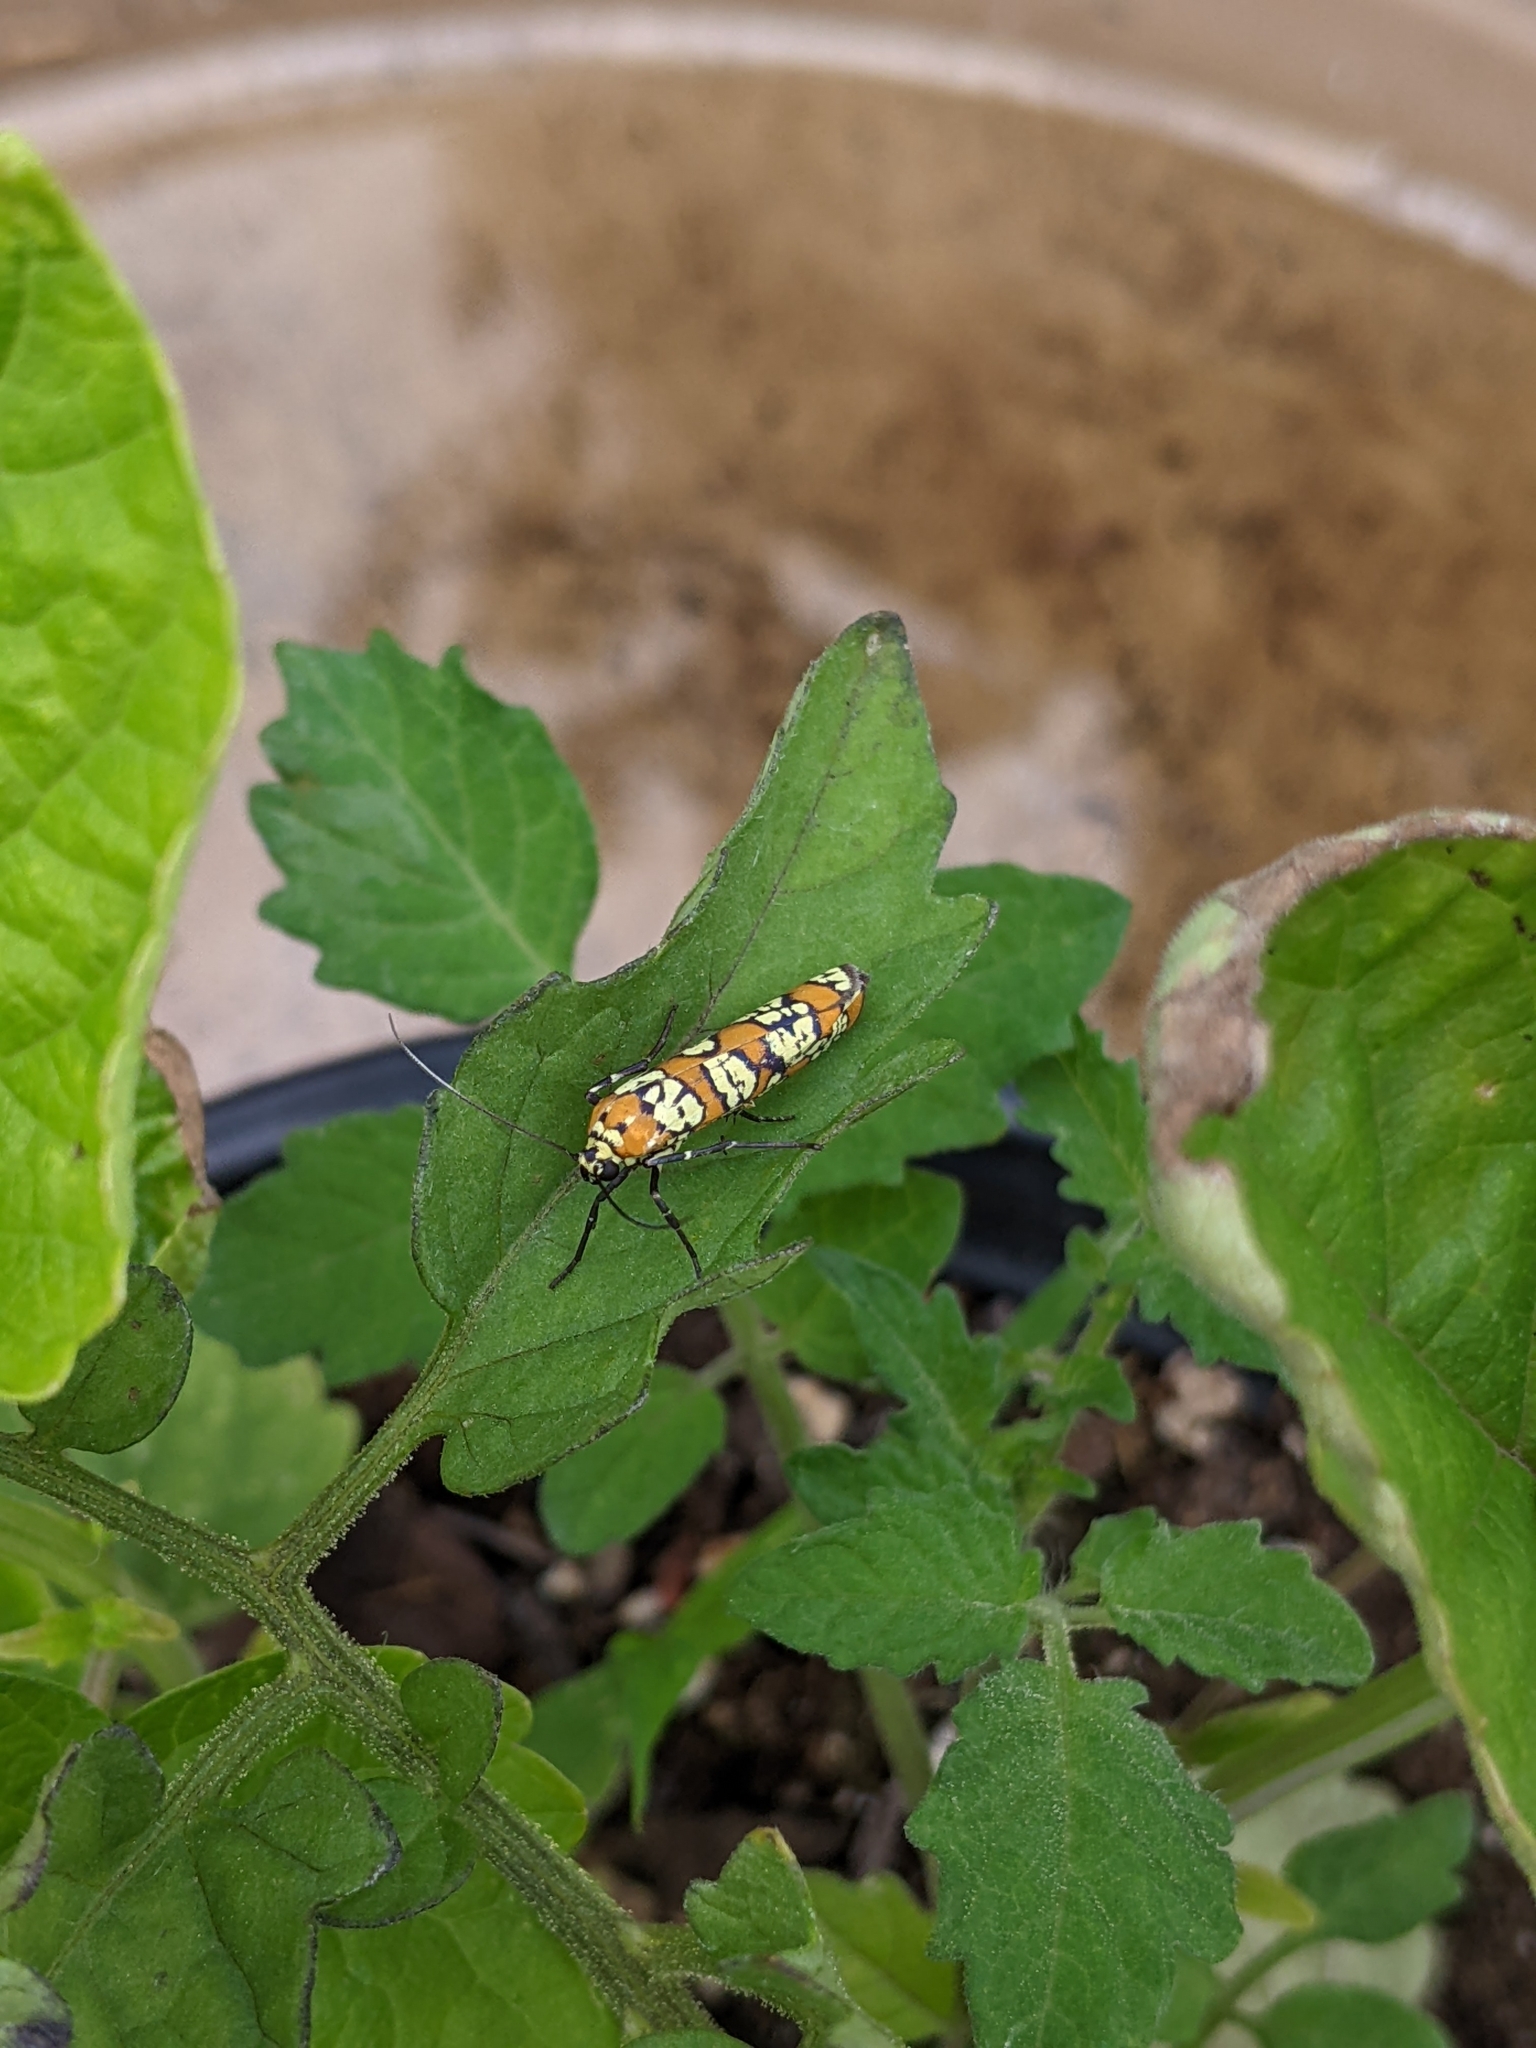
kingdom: Animalia
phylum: Arthropoda
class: Insecta
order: Lepidoptera
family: Attevidae
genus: Atteva
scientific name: Atteva punctella
